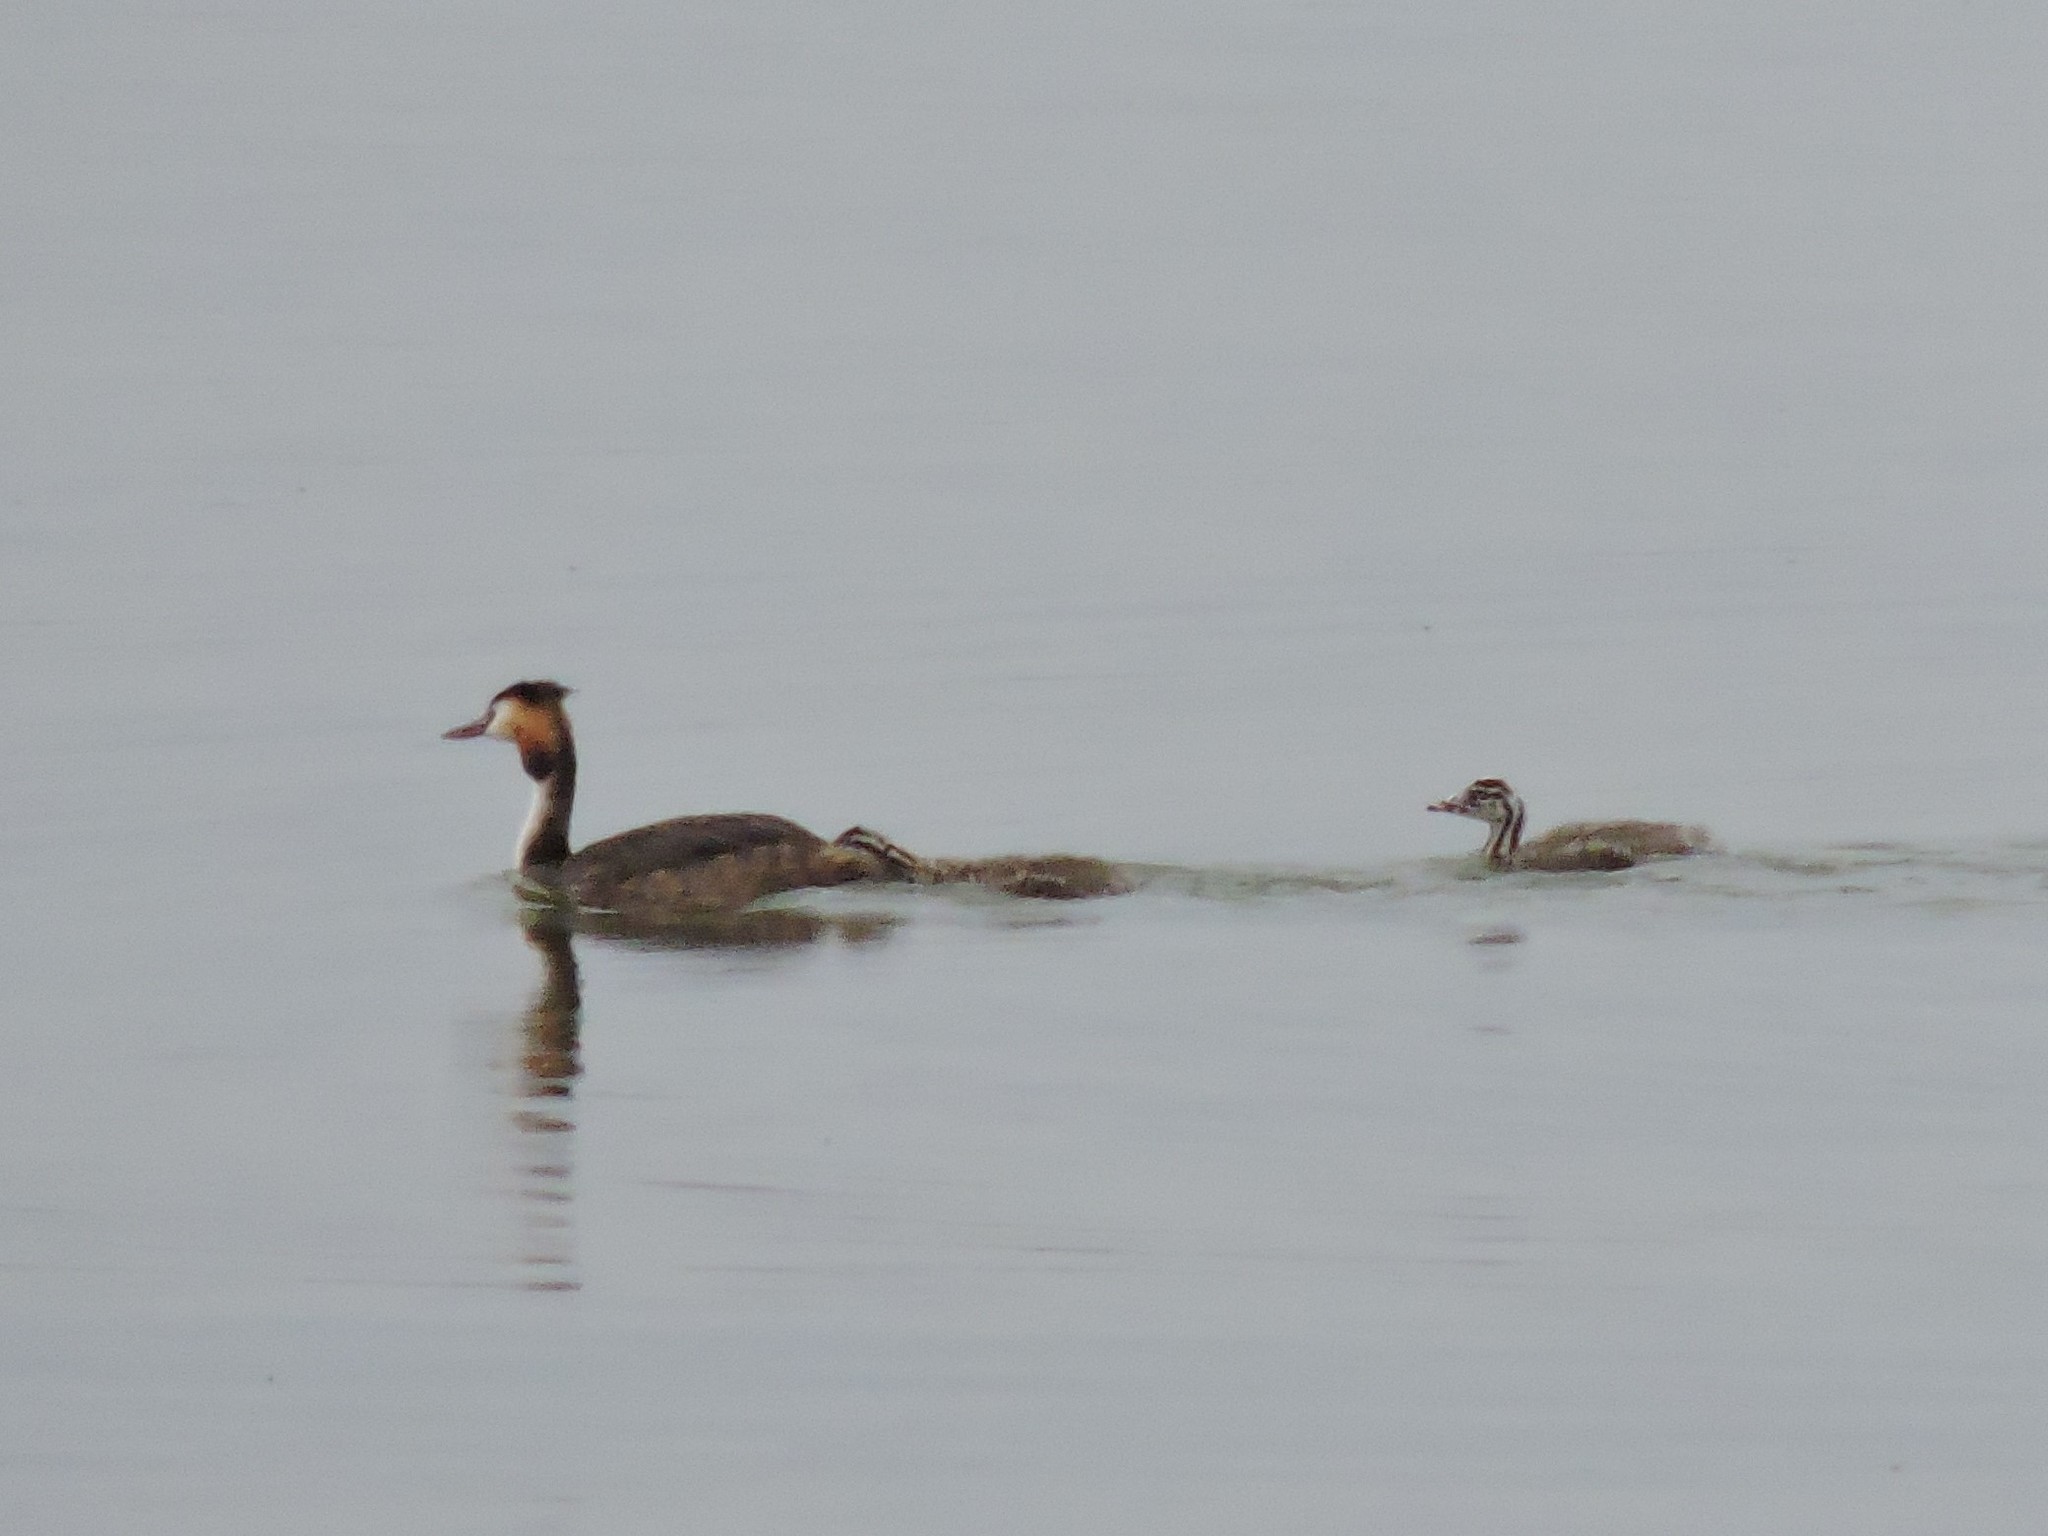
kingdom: Animalia
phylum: Chordata
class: Aves
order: Podicipediformes
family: Podicipedidae
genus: Podiceps
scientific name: Podiceps cristatus
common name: Great crested grebe
